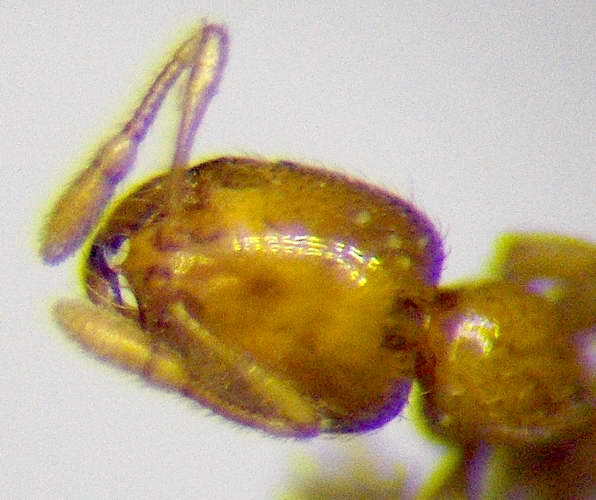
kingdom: Animalia
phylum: Arthropoda
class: Insecta
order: Hymenoptera
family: Formicidae
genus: Solenopsis
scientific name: Solenopsis fugax
